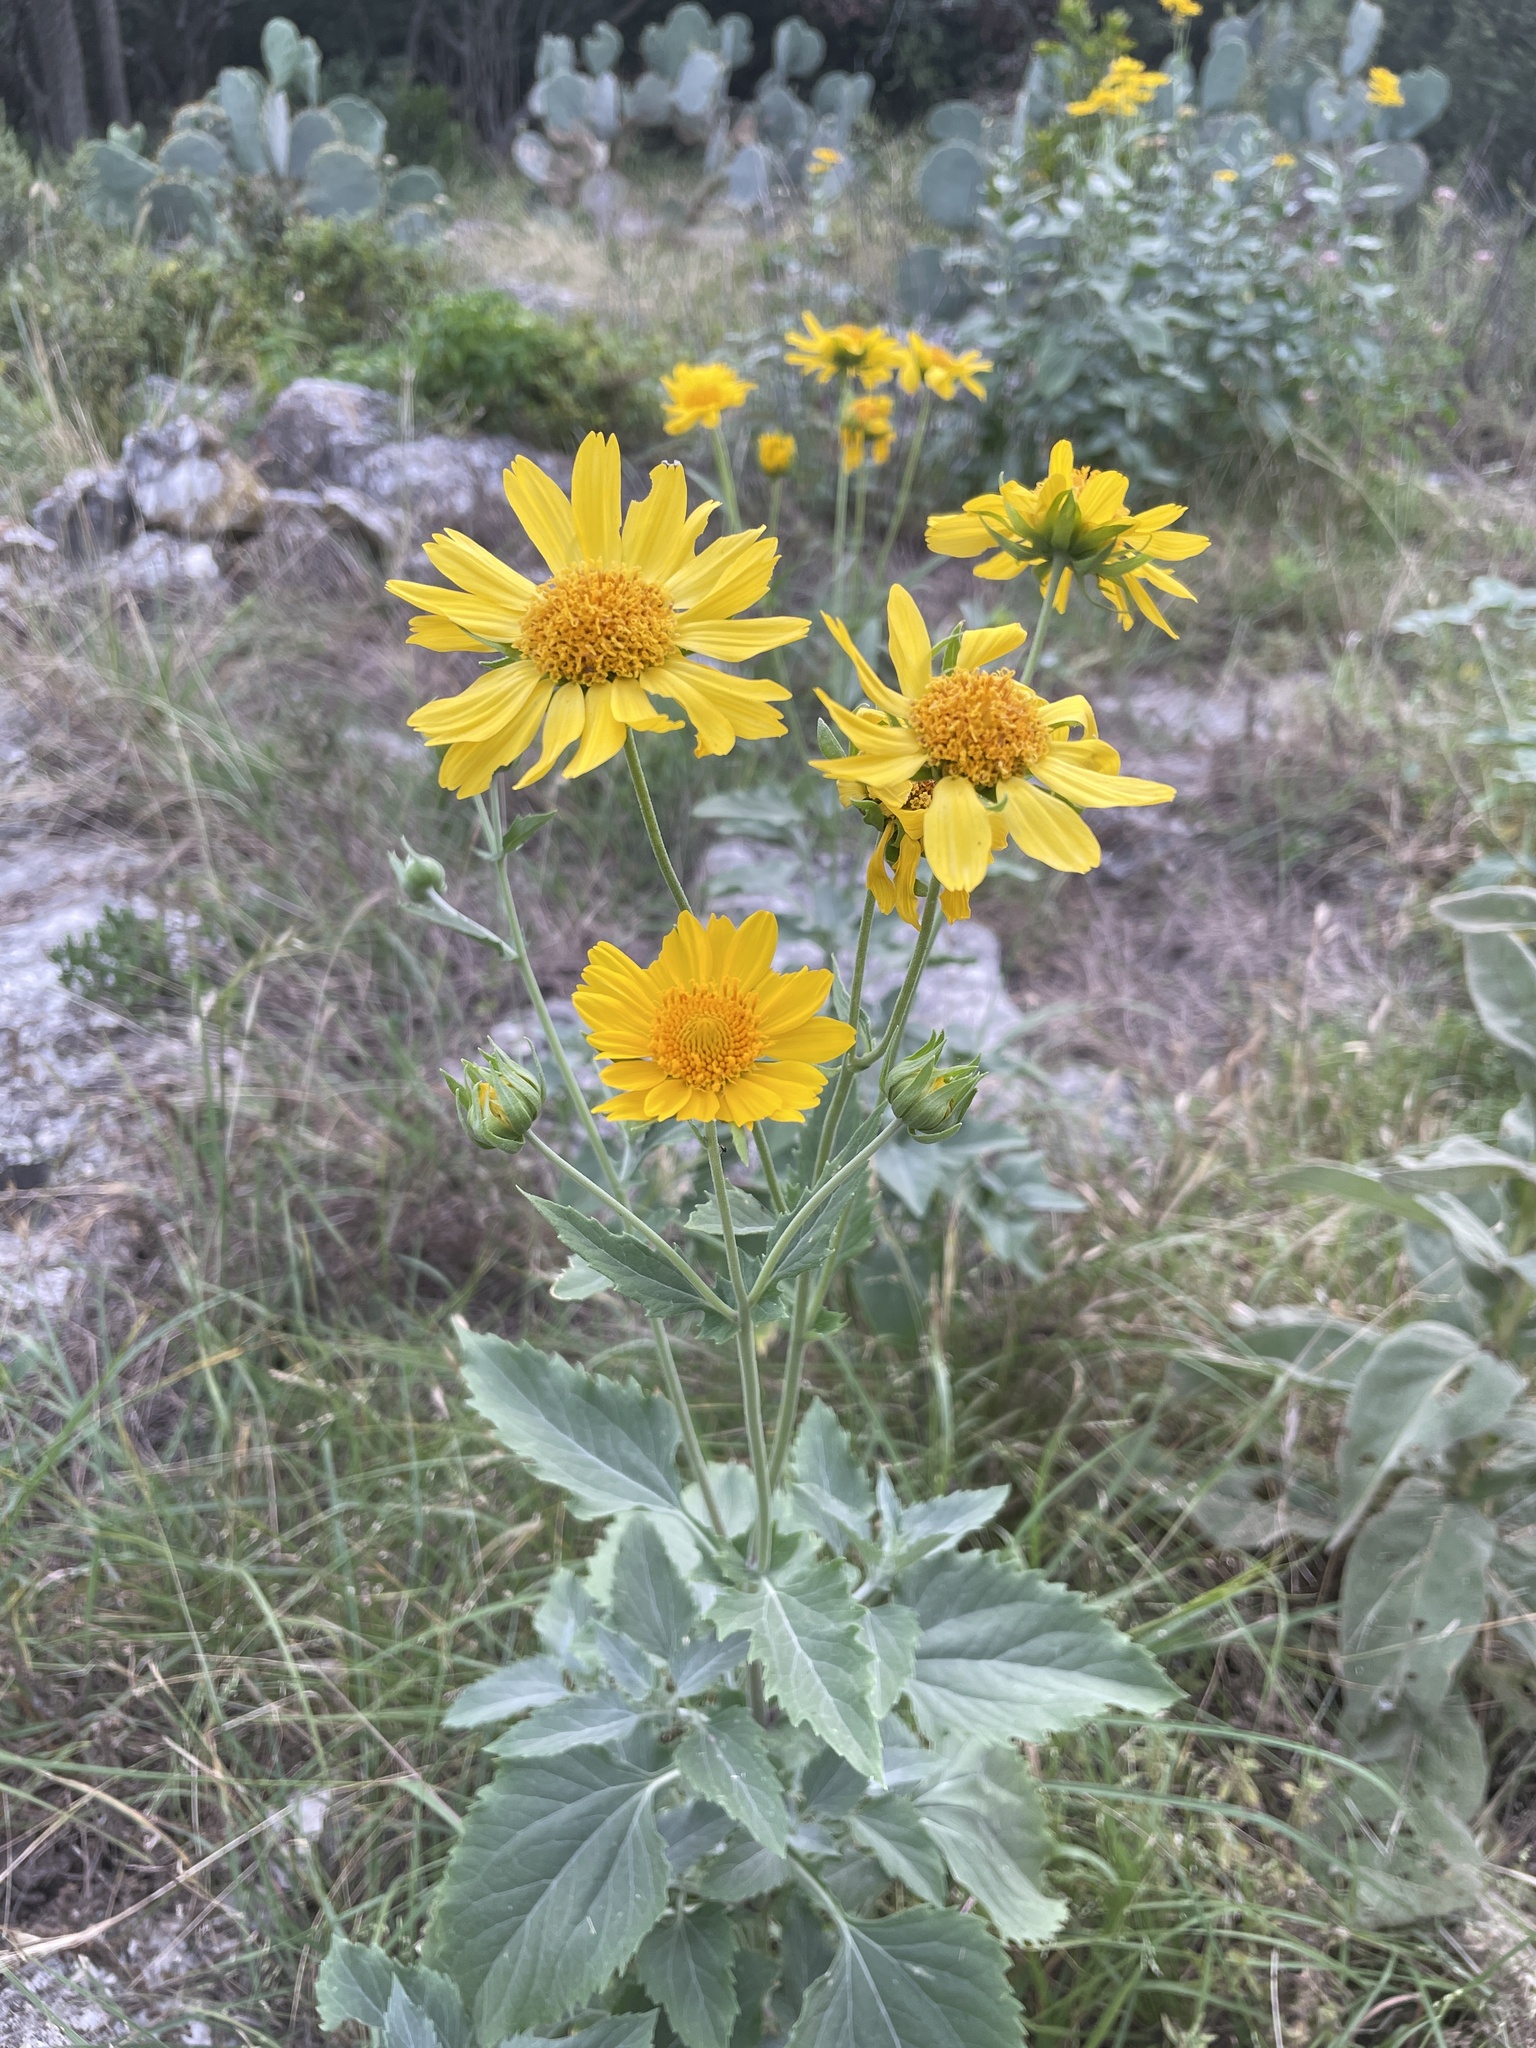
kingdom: Plantae
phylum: Tracheophyta
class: Magnoliopsida
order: Asterales
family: Asteraceae
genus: Verbesina
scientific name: Verbesina encelioides
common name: Golden crownbeard
